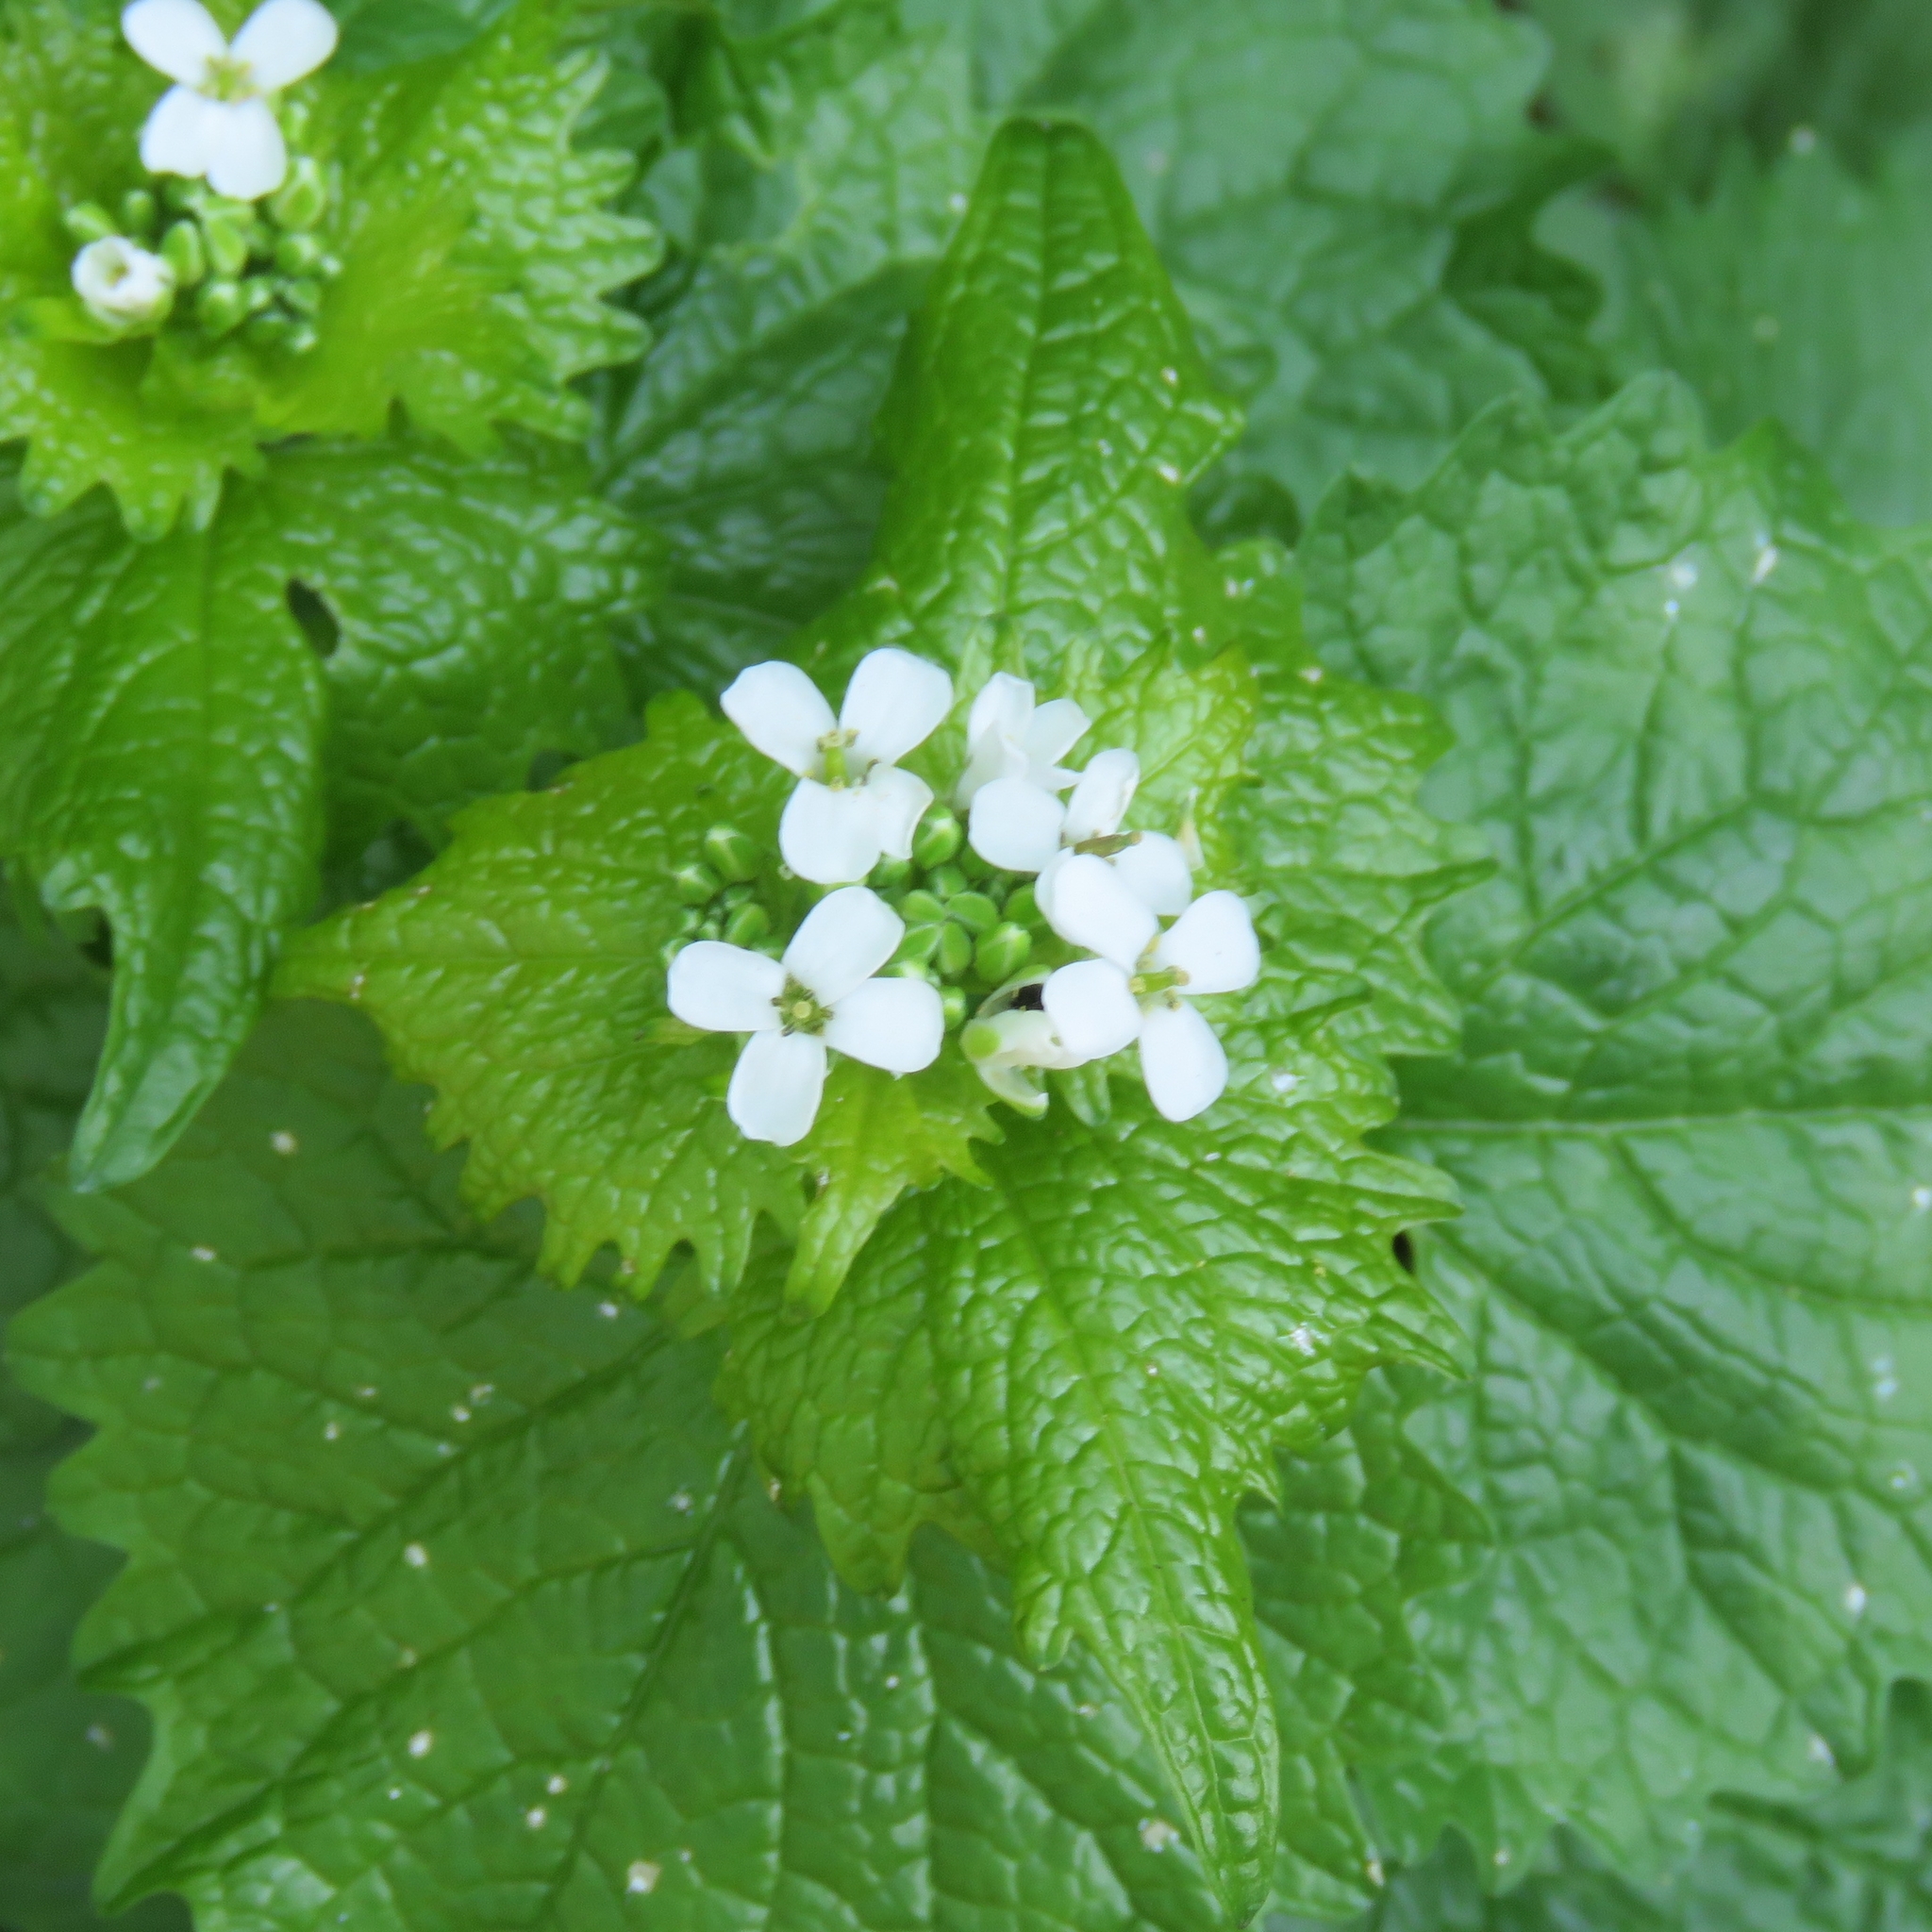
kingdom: Plantae
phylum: Tracheophyta
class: Magnoliopsida
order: Brassicales
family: Brassicaceae
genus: Alliaria
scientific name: Alliaria petiolata
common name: Garlic mustard
